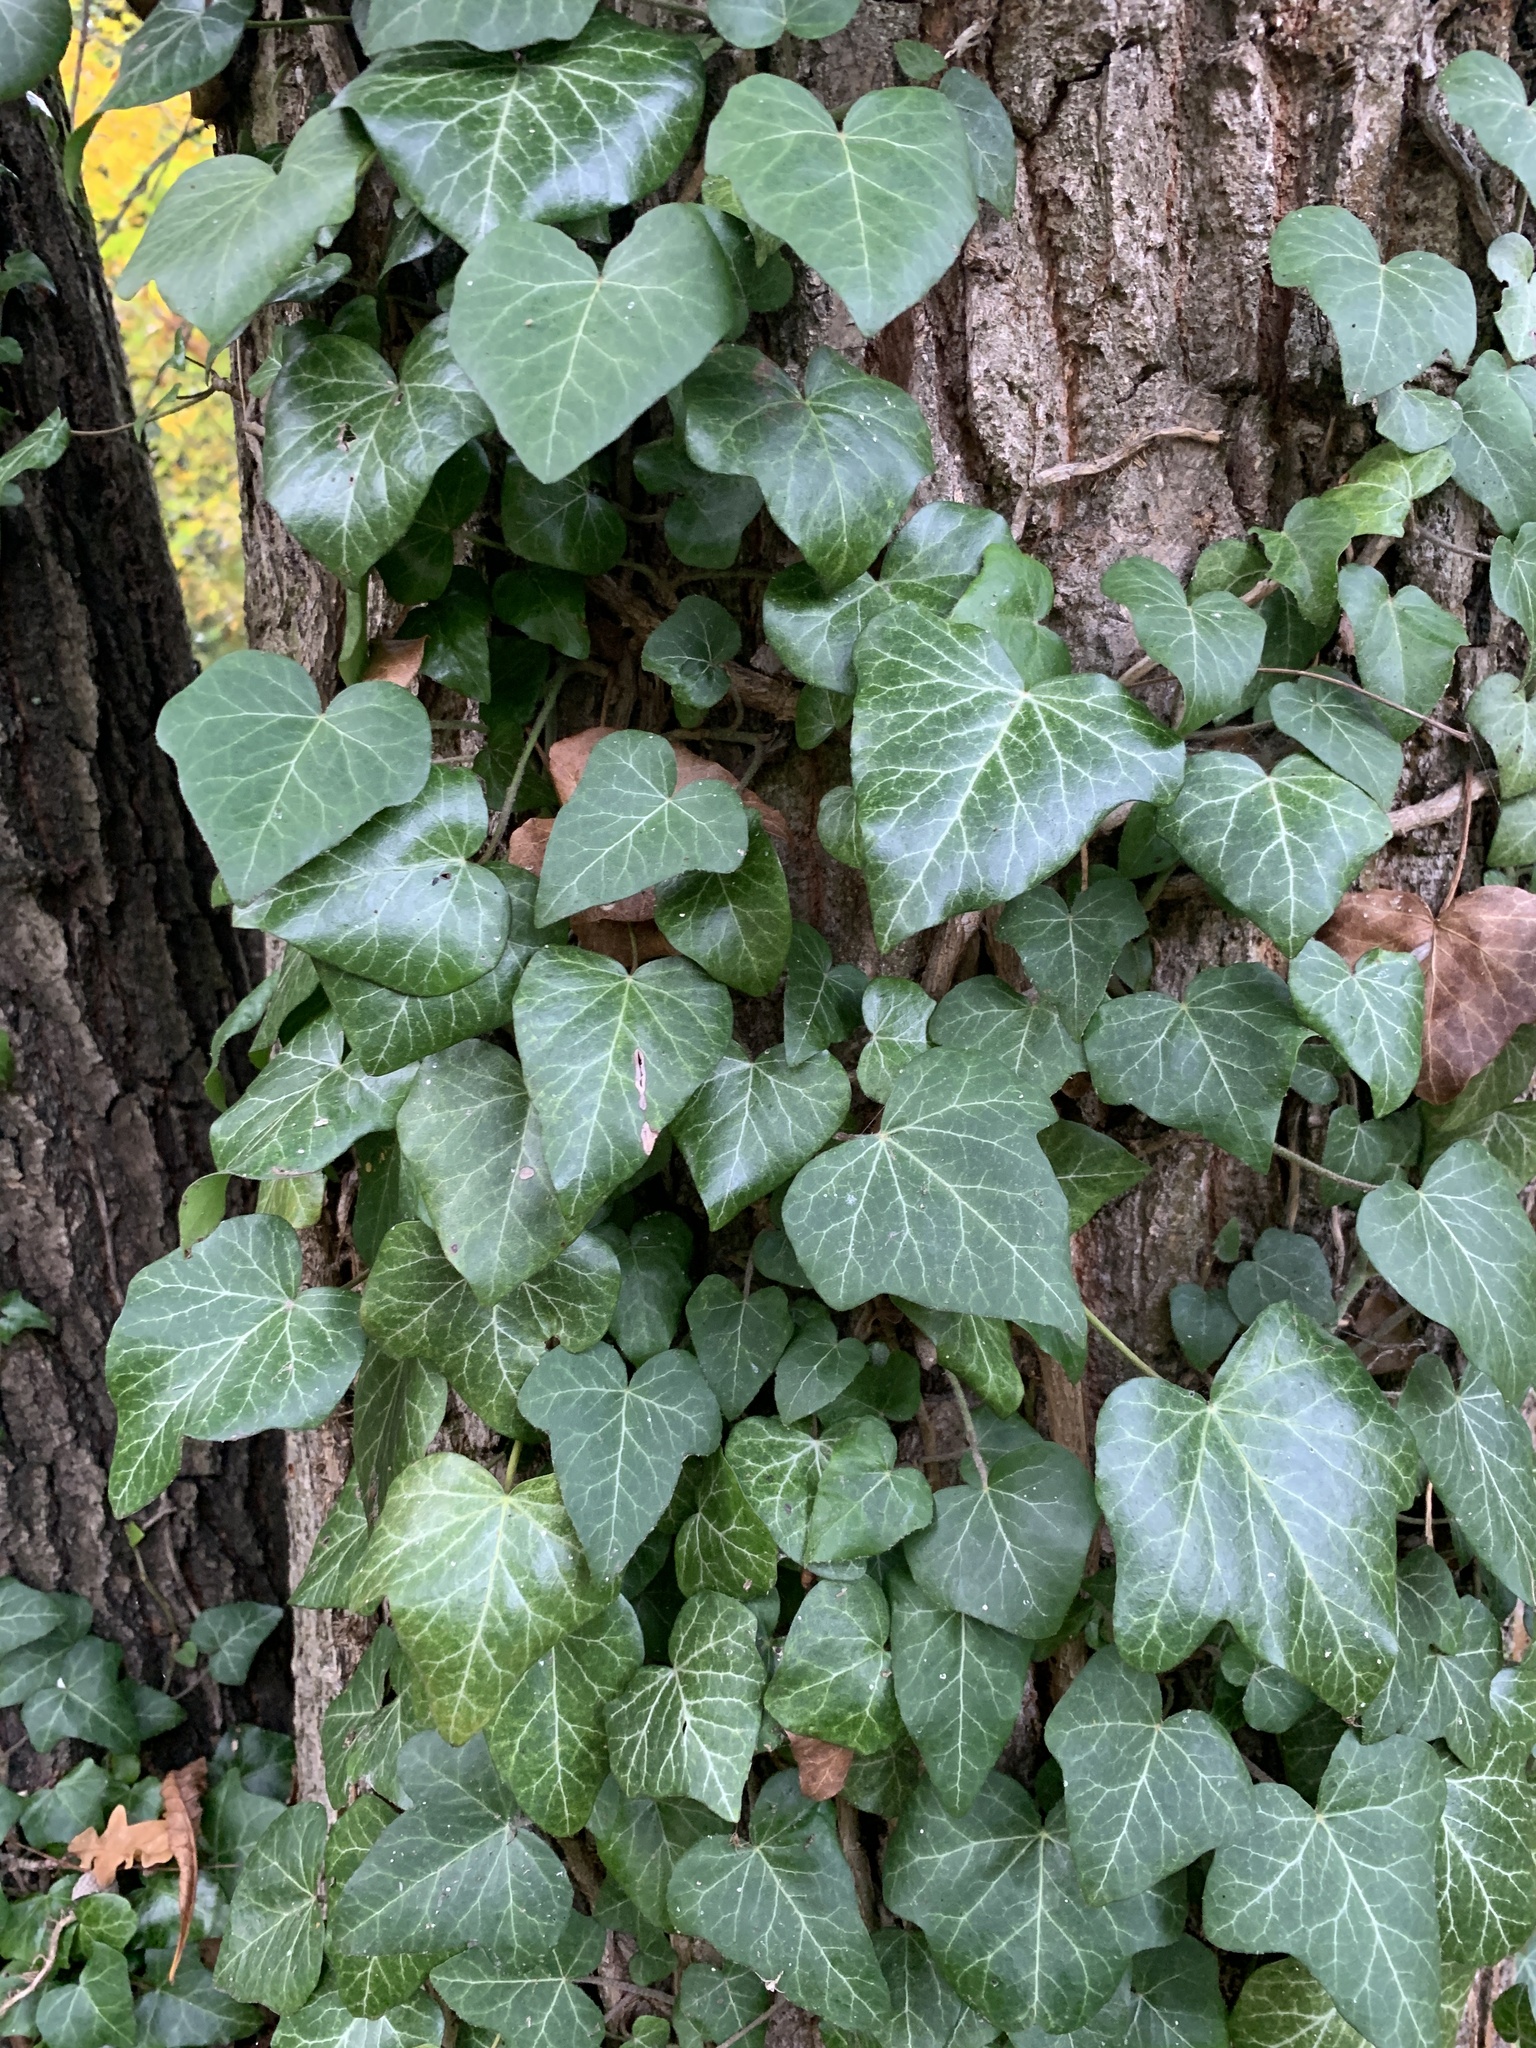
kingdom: Plantae
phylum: Tracheophyta
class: Magnoliopsida
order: Apiales
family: Araliaceae
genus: Hedera
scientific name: Hedera helix
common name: Ivy
